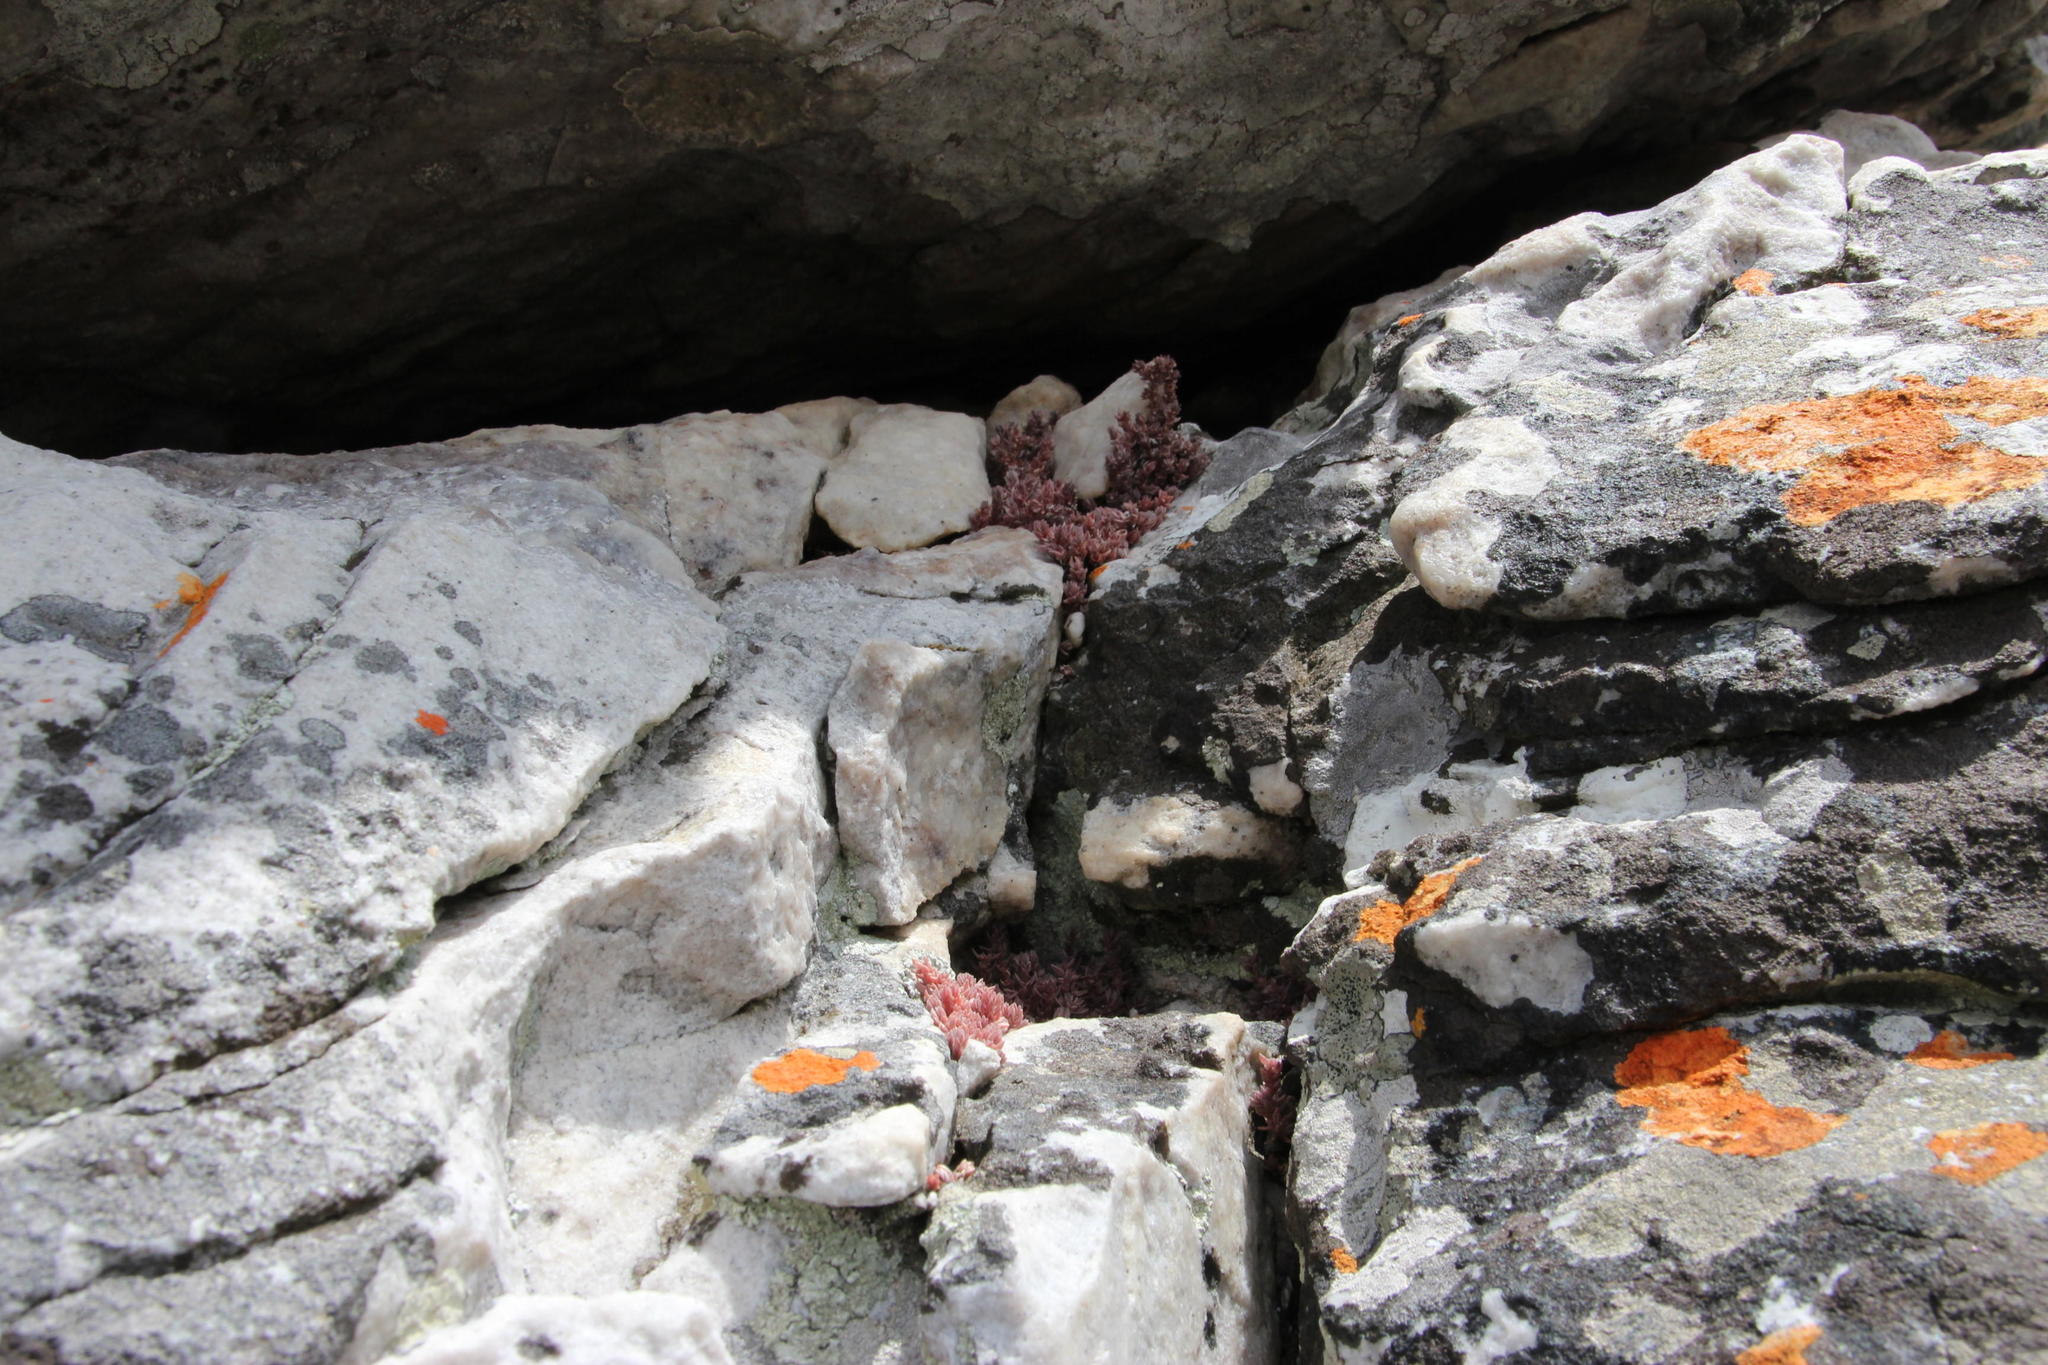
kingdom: Plantae
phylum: Tracheophyta
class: Magnoliopsida
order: Saxifragales
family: Crassulaceae
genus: Crassula
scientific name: Crassula lanceolata
